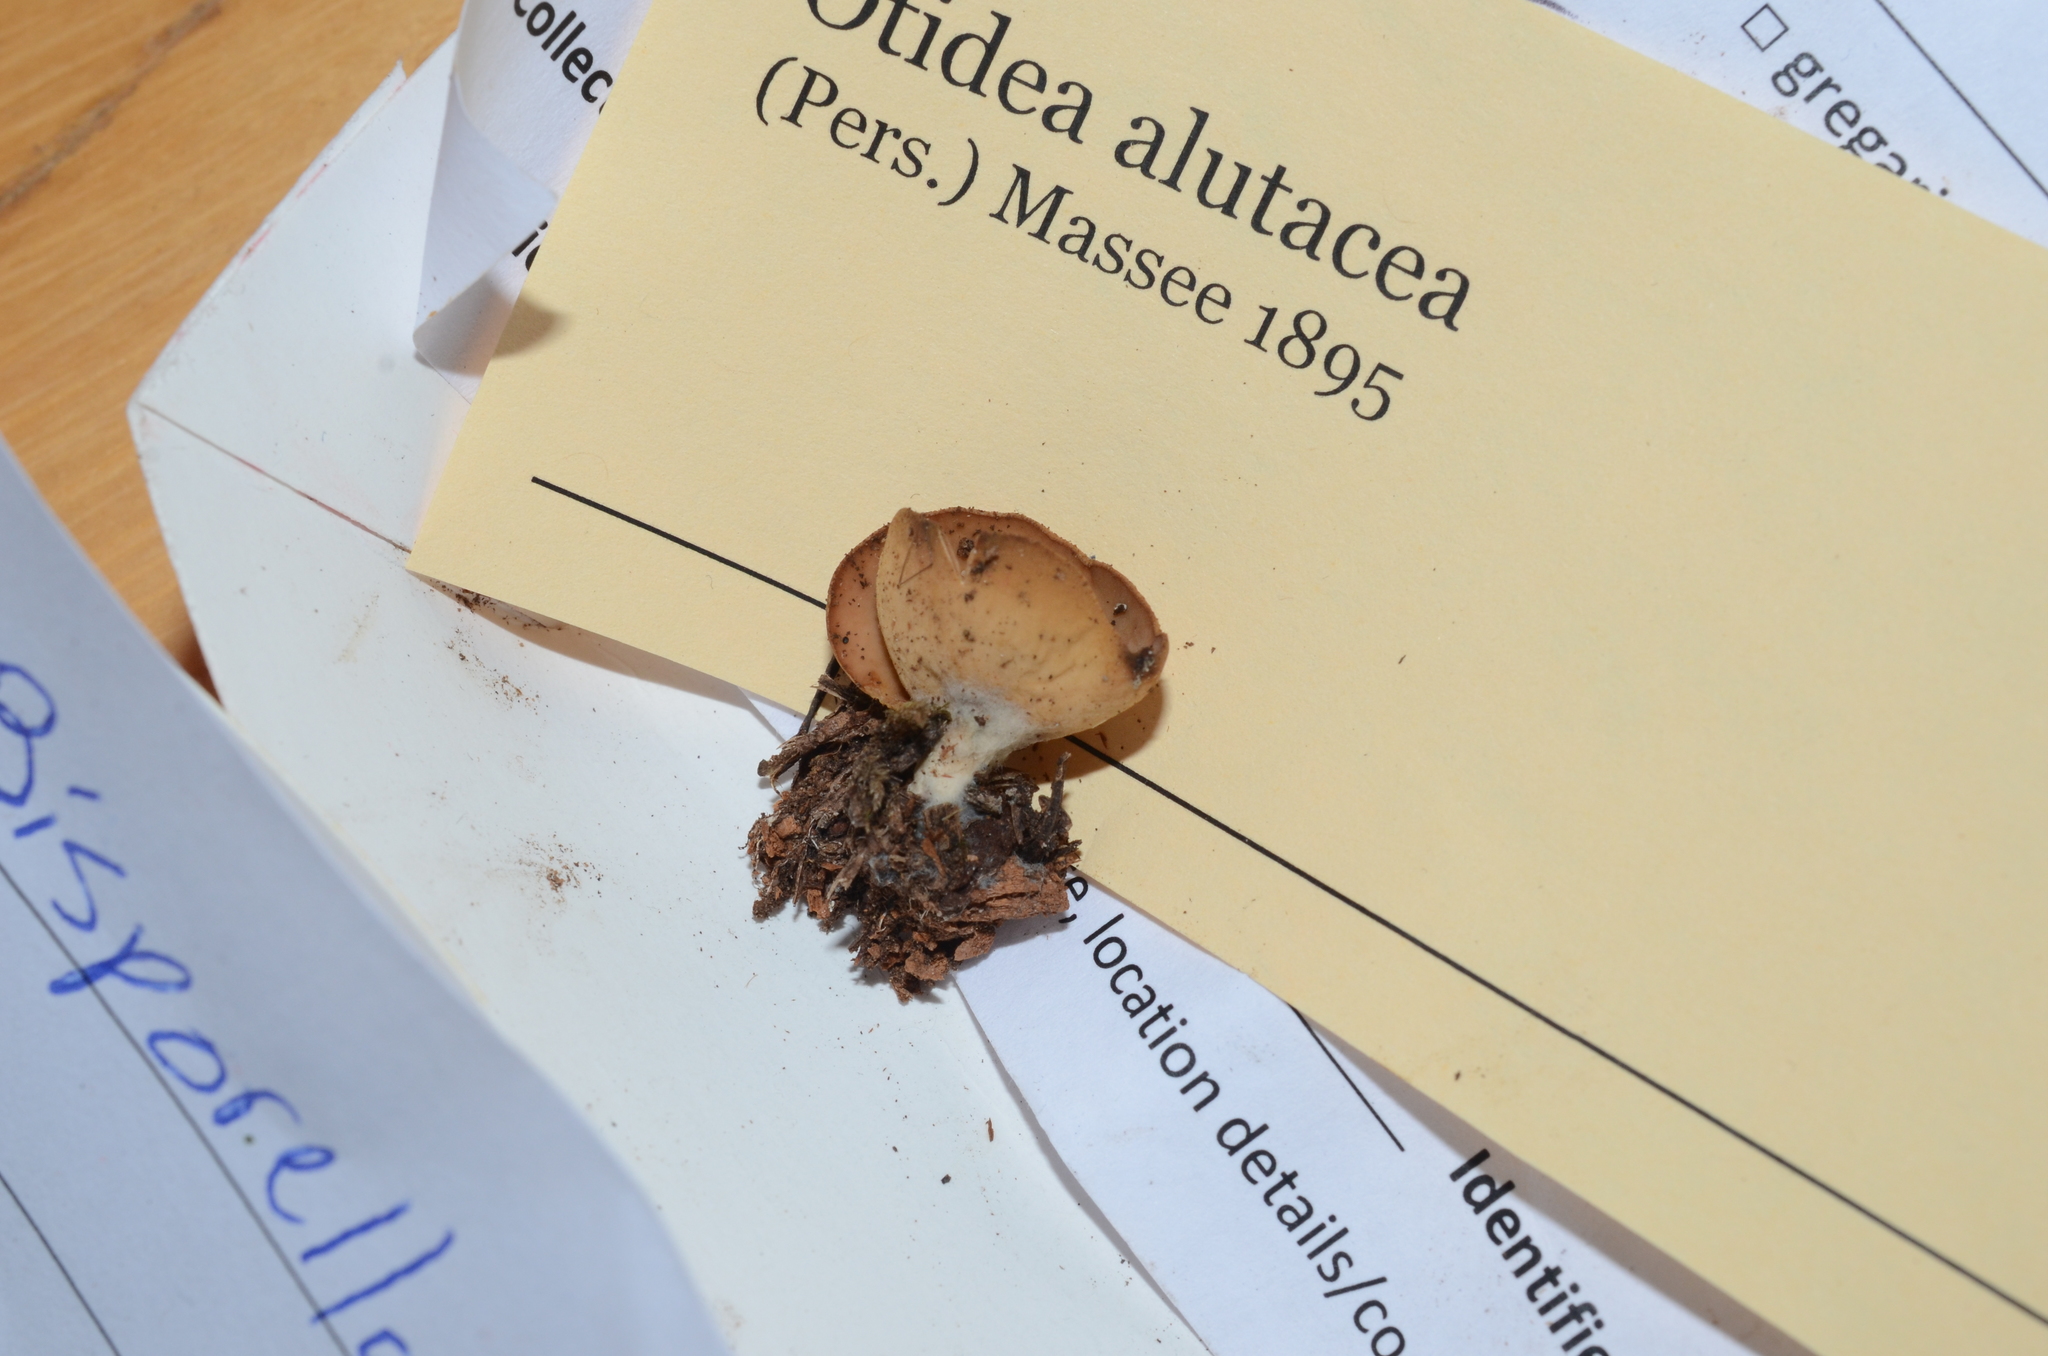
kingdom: Fungi
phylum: Ascomycota
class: Pezizomycetes
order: Pezizales
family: Otideaceae
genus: Otidea
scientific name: Otidea alutacea
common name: Tan ear
